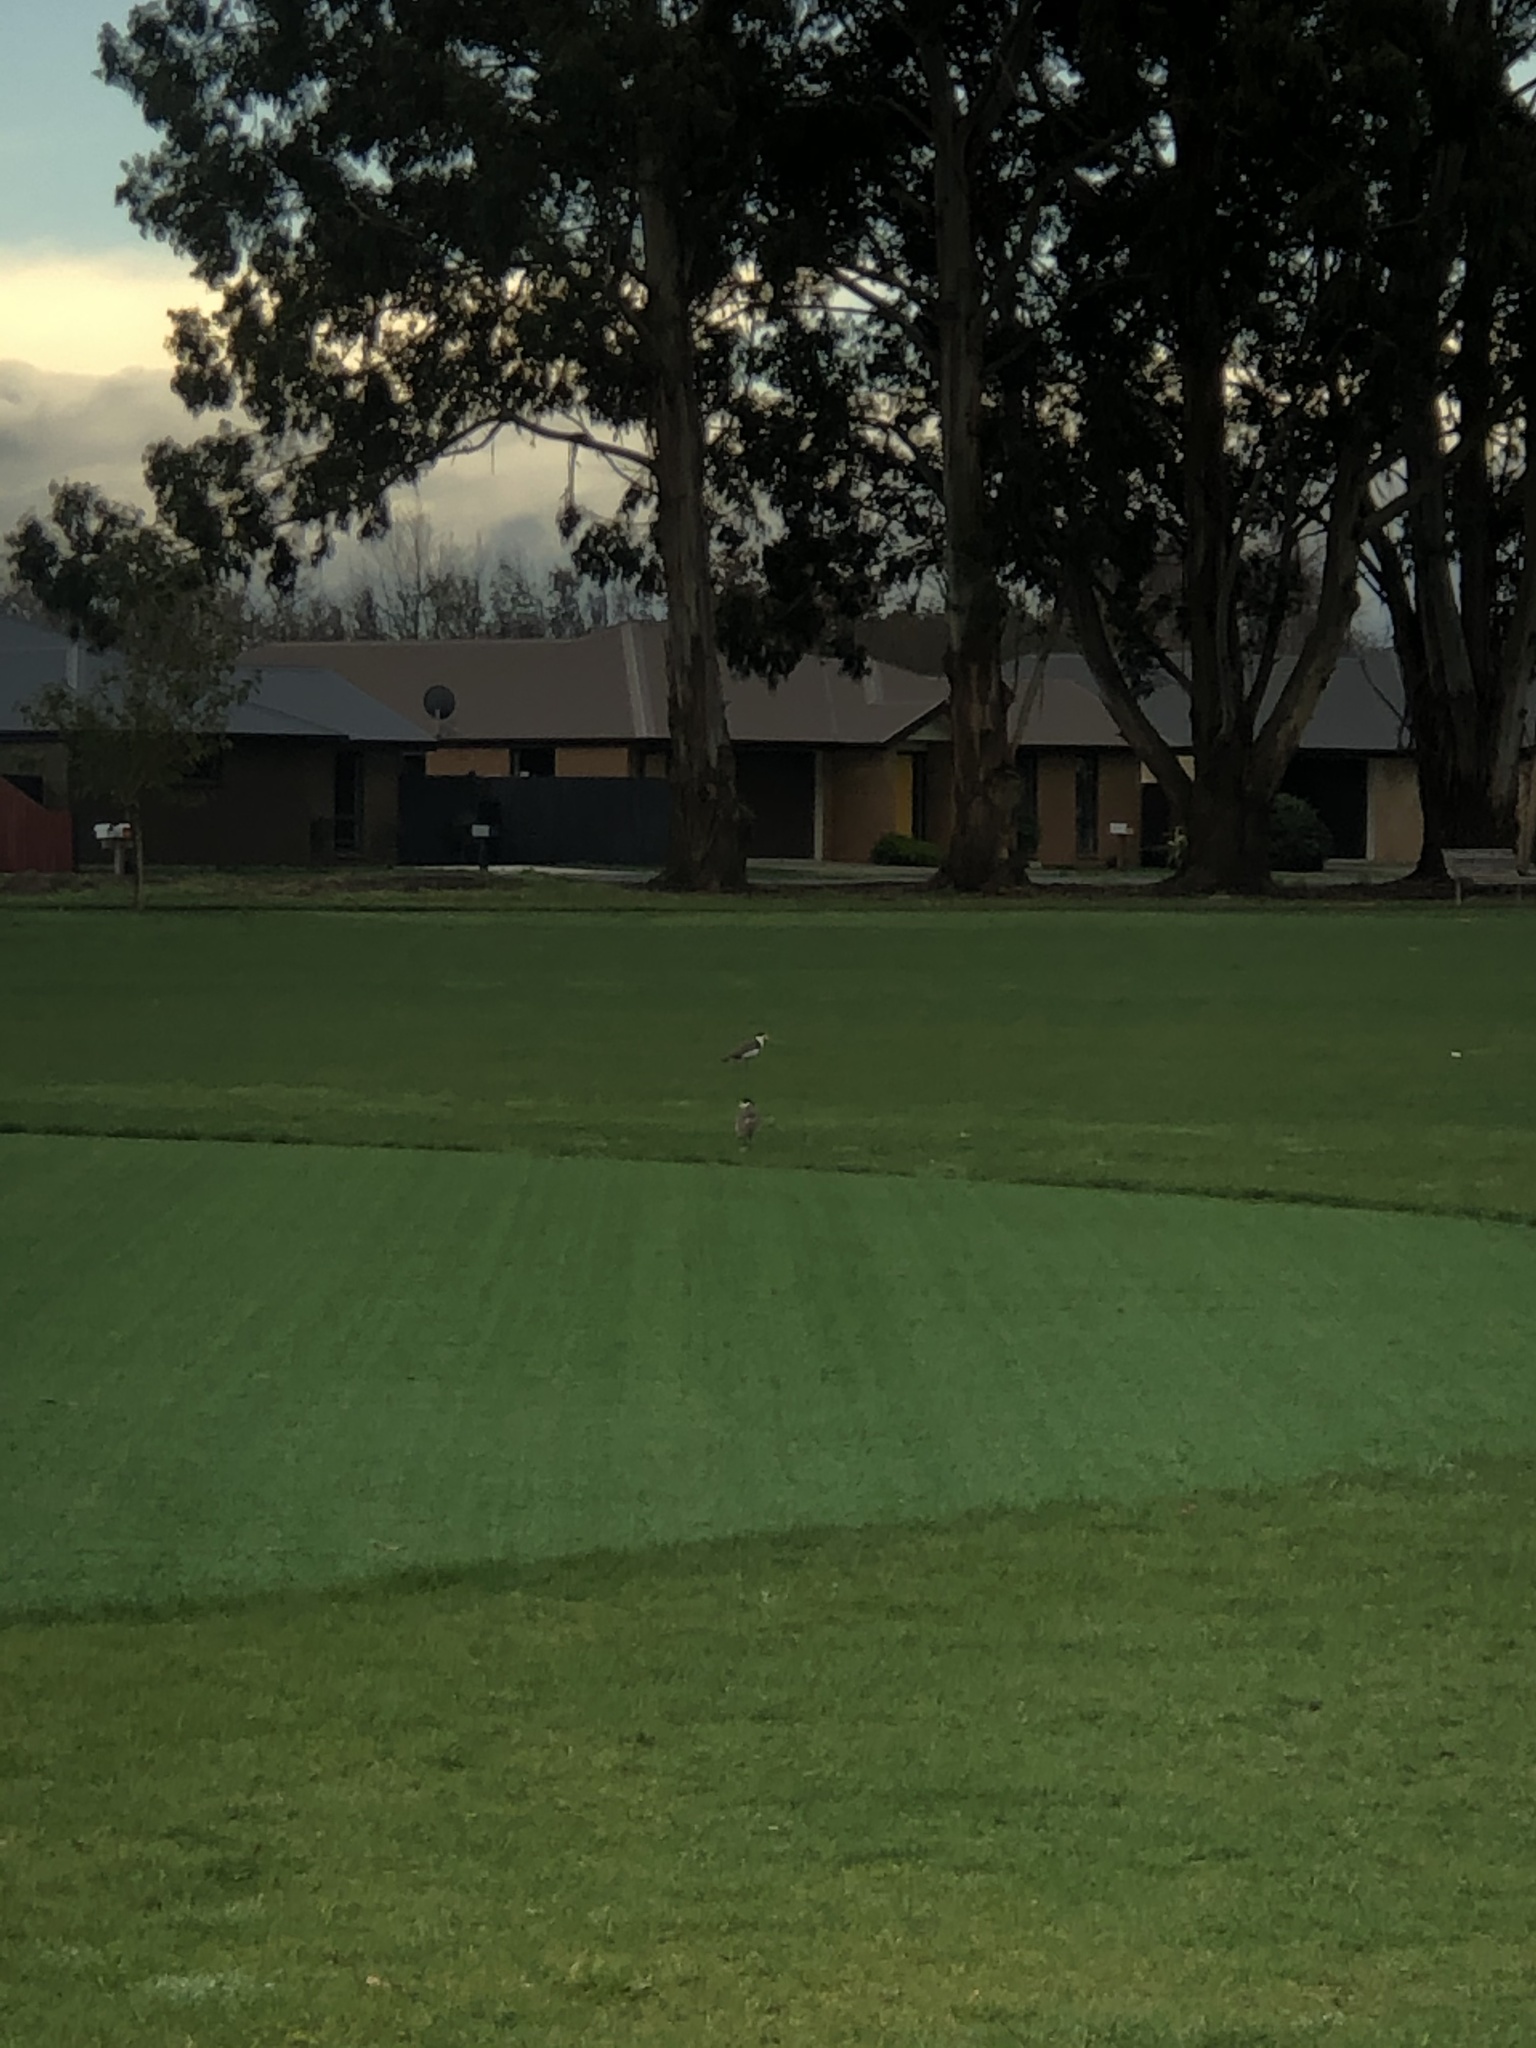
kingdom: Animalia
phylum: Chordata
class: Aves
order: Charadriiformes
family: Charadriidae
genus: Vanellus
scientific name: Vanellus miles
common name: Masked lapwing
